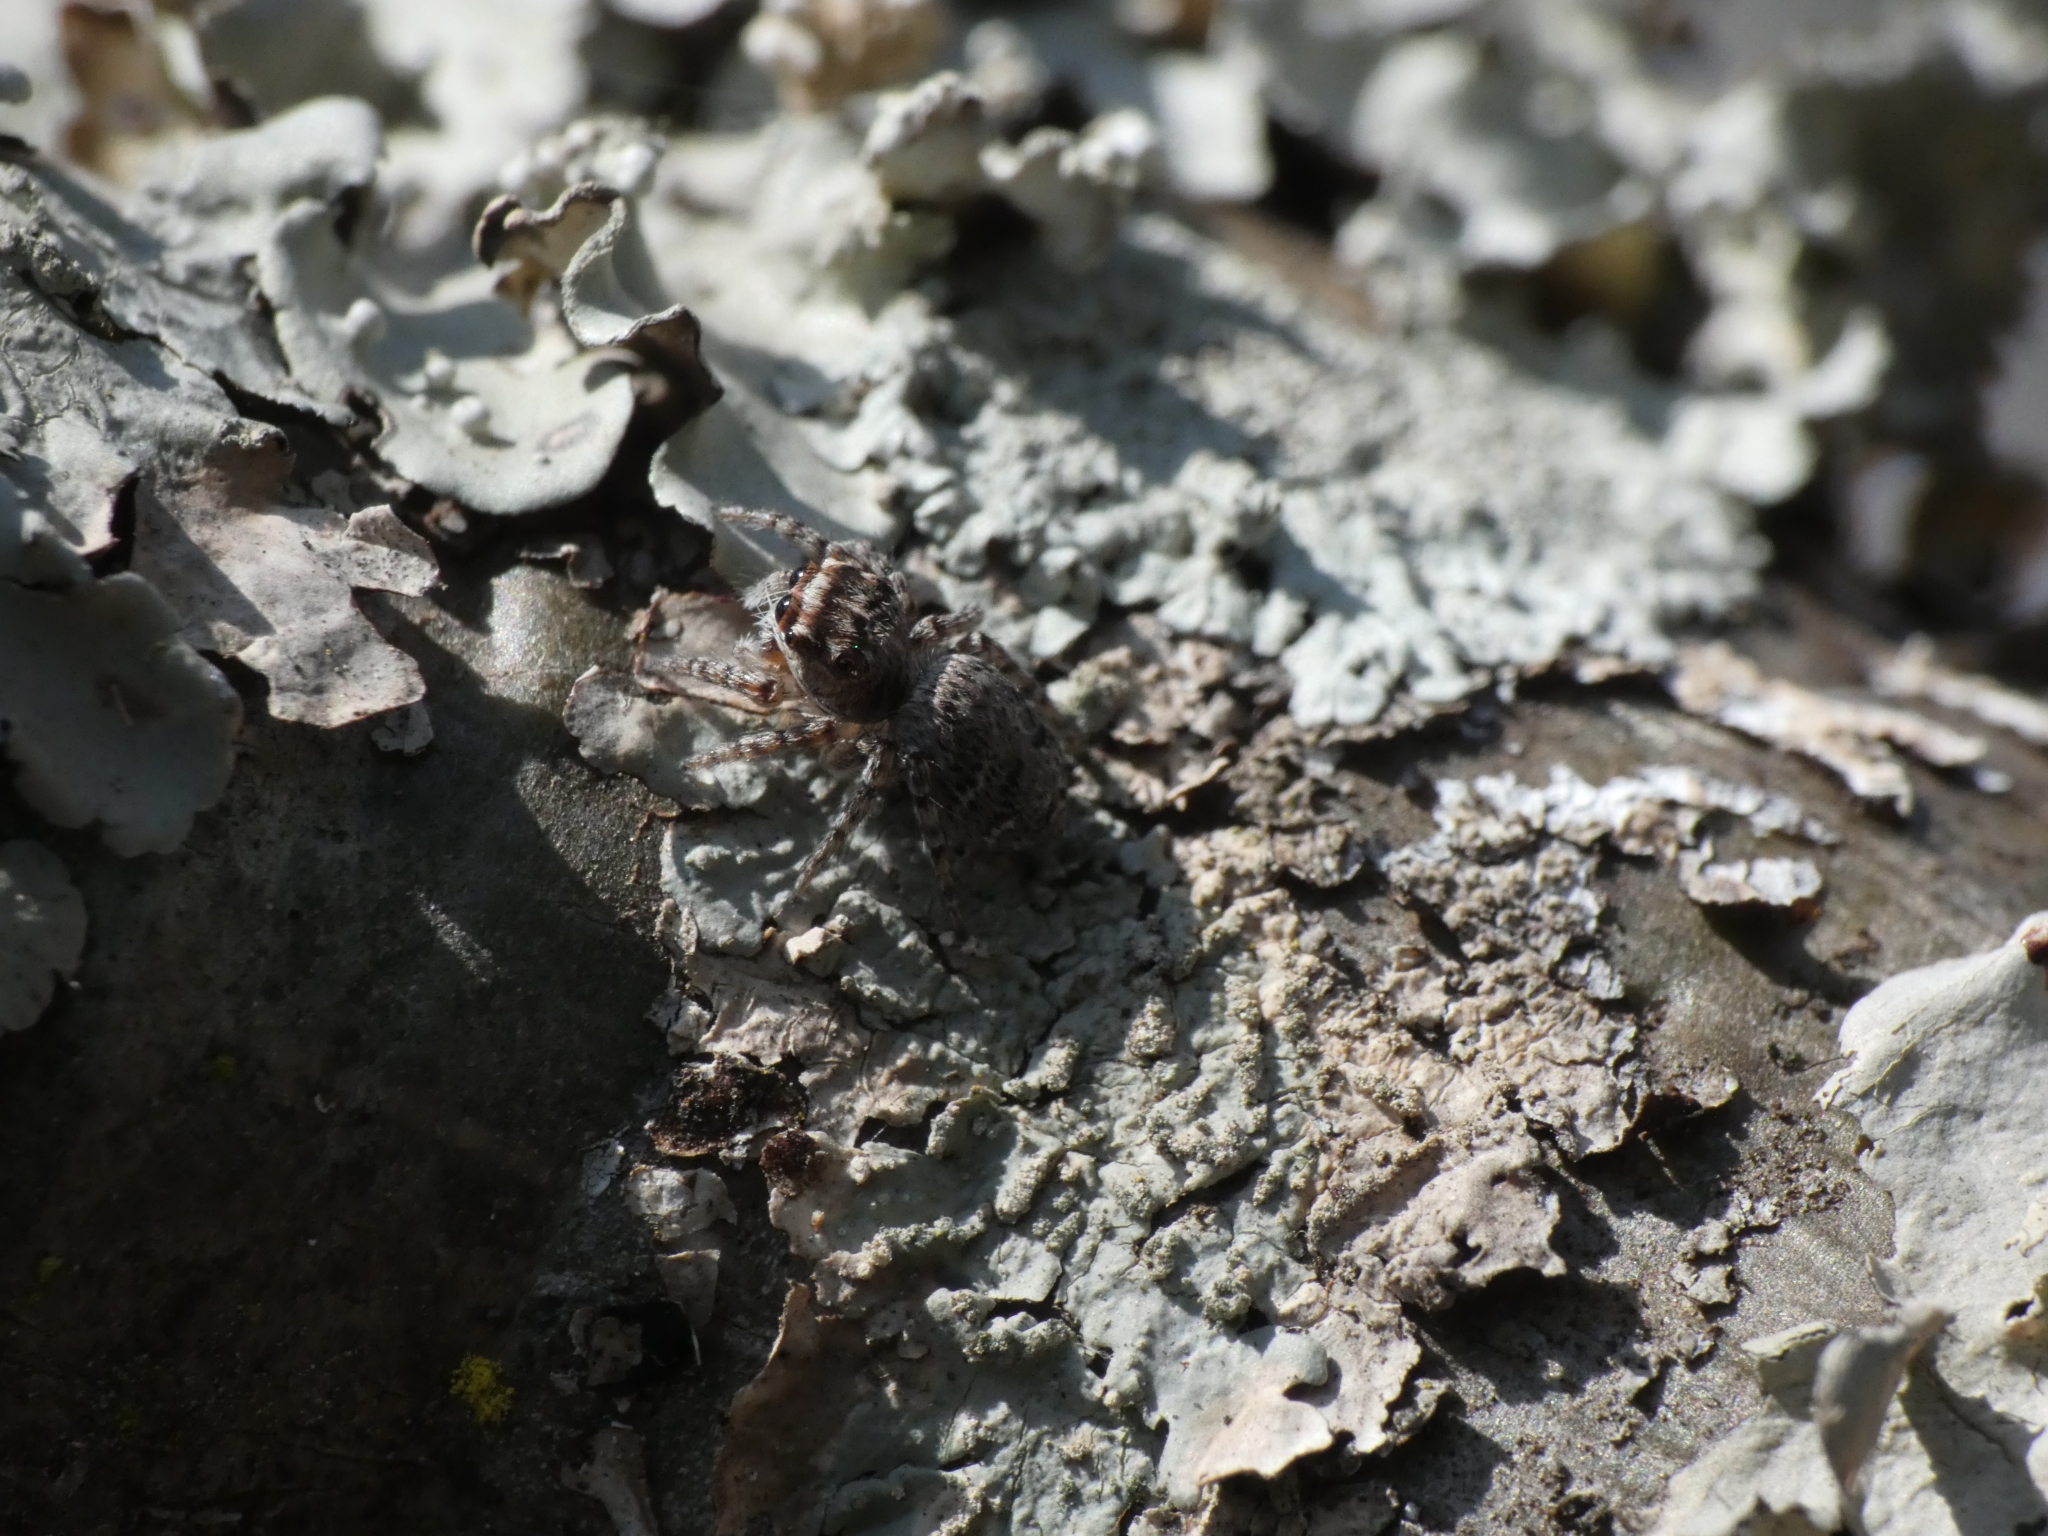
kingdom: Animalia
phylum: Arthropoda
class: Arachnida
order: Araneae
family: Salticidae
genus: Tusitala
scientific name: Tusitala hirsuta
